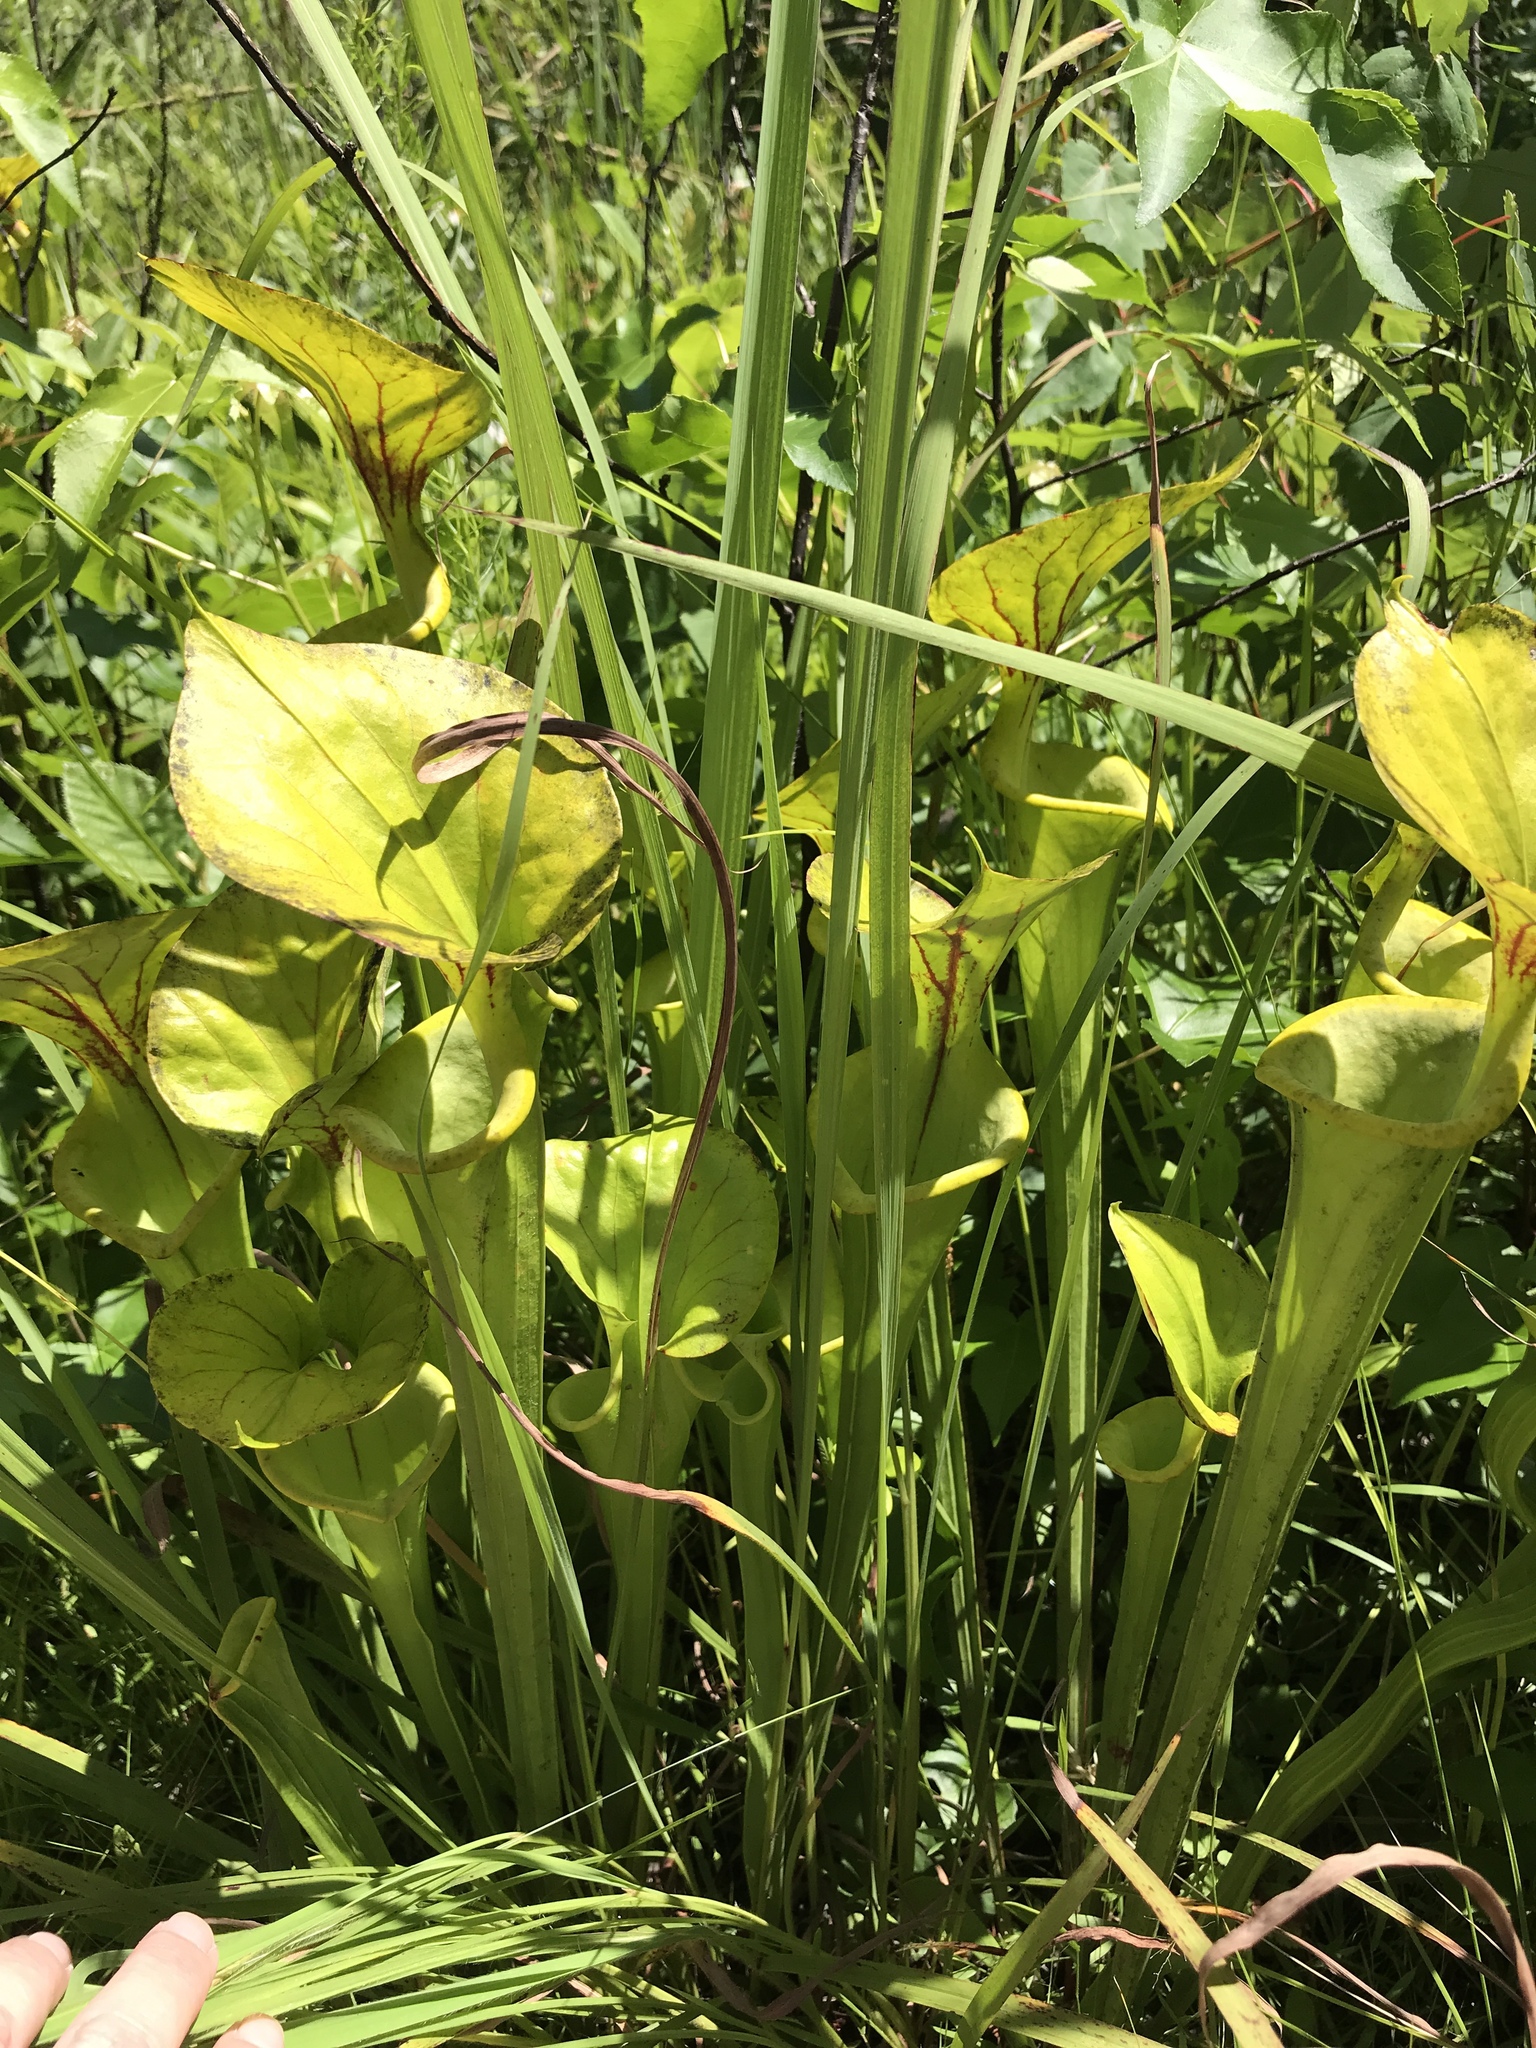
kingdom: Plantae
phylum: Tracheophyta
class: Magnoliopsida
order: Ericales
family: Sarraceniaceae
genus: Sarracenia
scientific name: Sarracenia flava
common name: Trumpets
